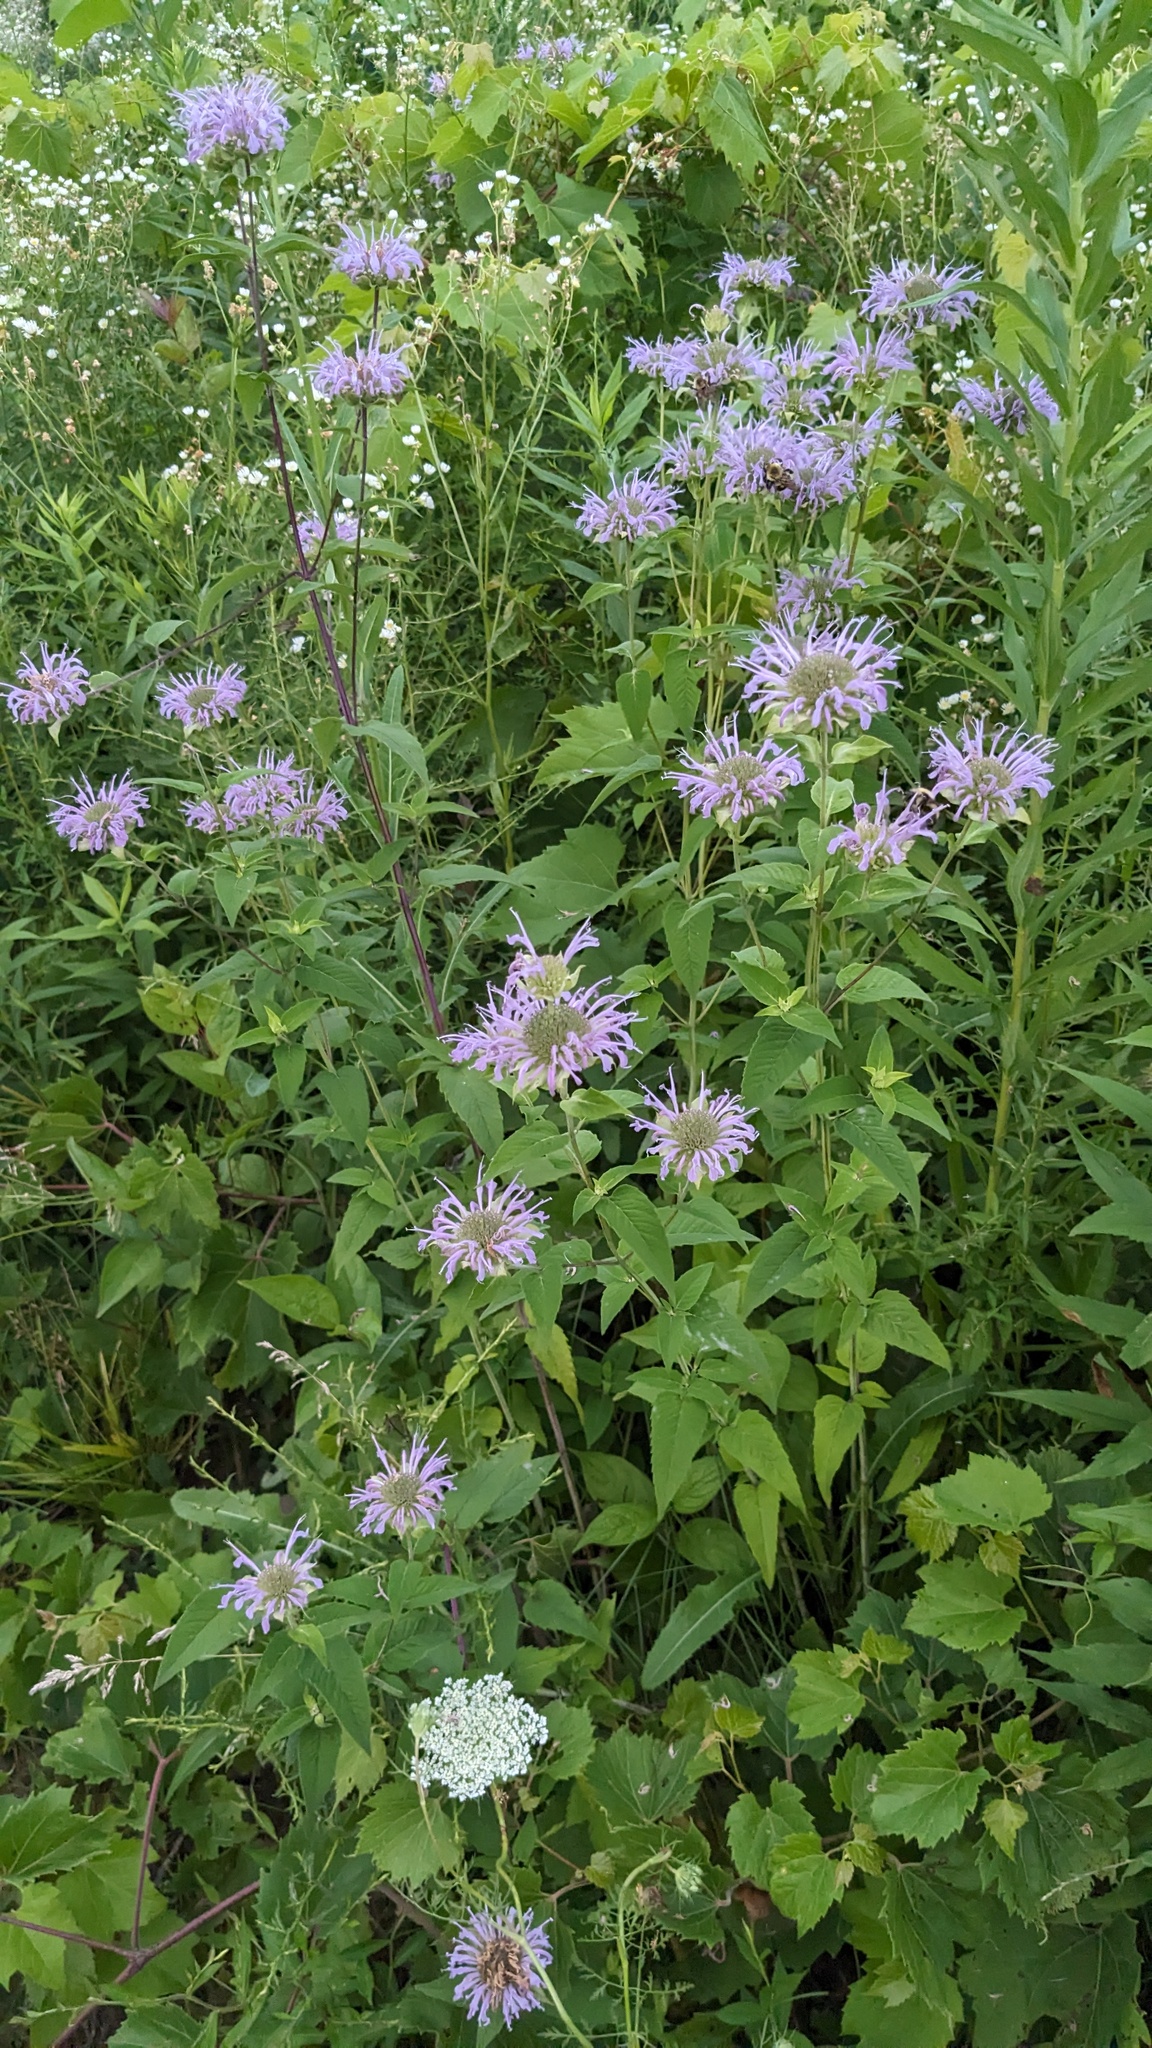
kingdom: Plantae
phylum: Tracheophyta
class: Magnoliopsida
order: Lamiales
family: Lamiaceae
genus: Monarda
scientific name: Monarda fistulosa
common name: Purple beebalm
